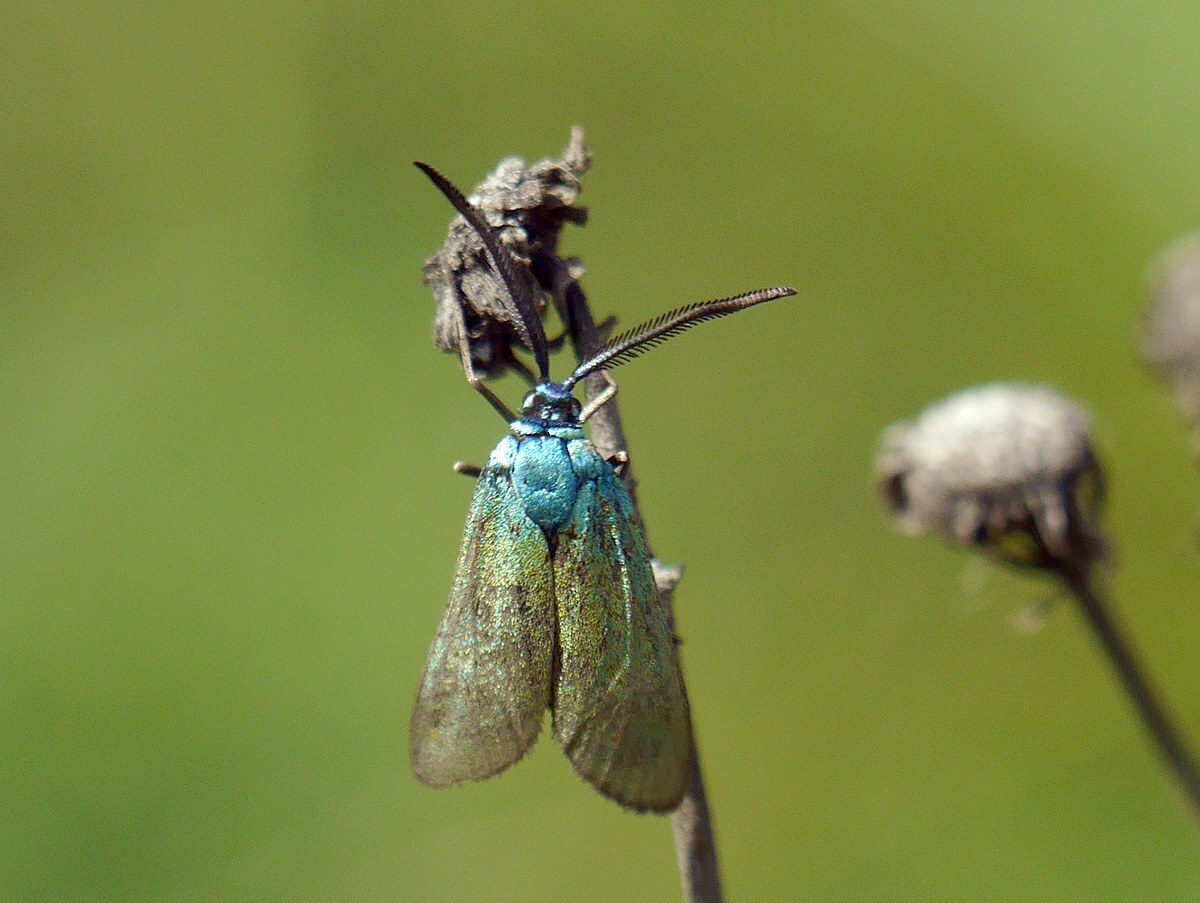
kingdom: Animalia
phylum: Arthropoda
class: Insecta
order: Lepidoptera
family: Zygaenidae
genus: Jordanita
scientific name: Jordanita chloros
